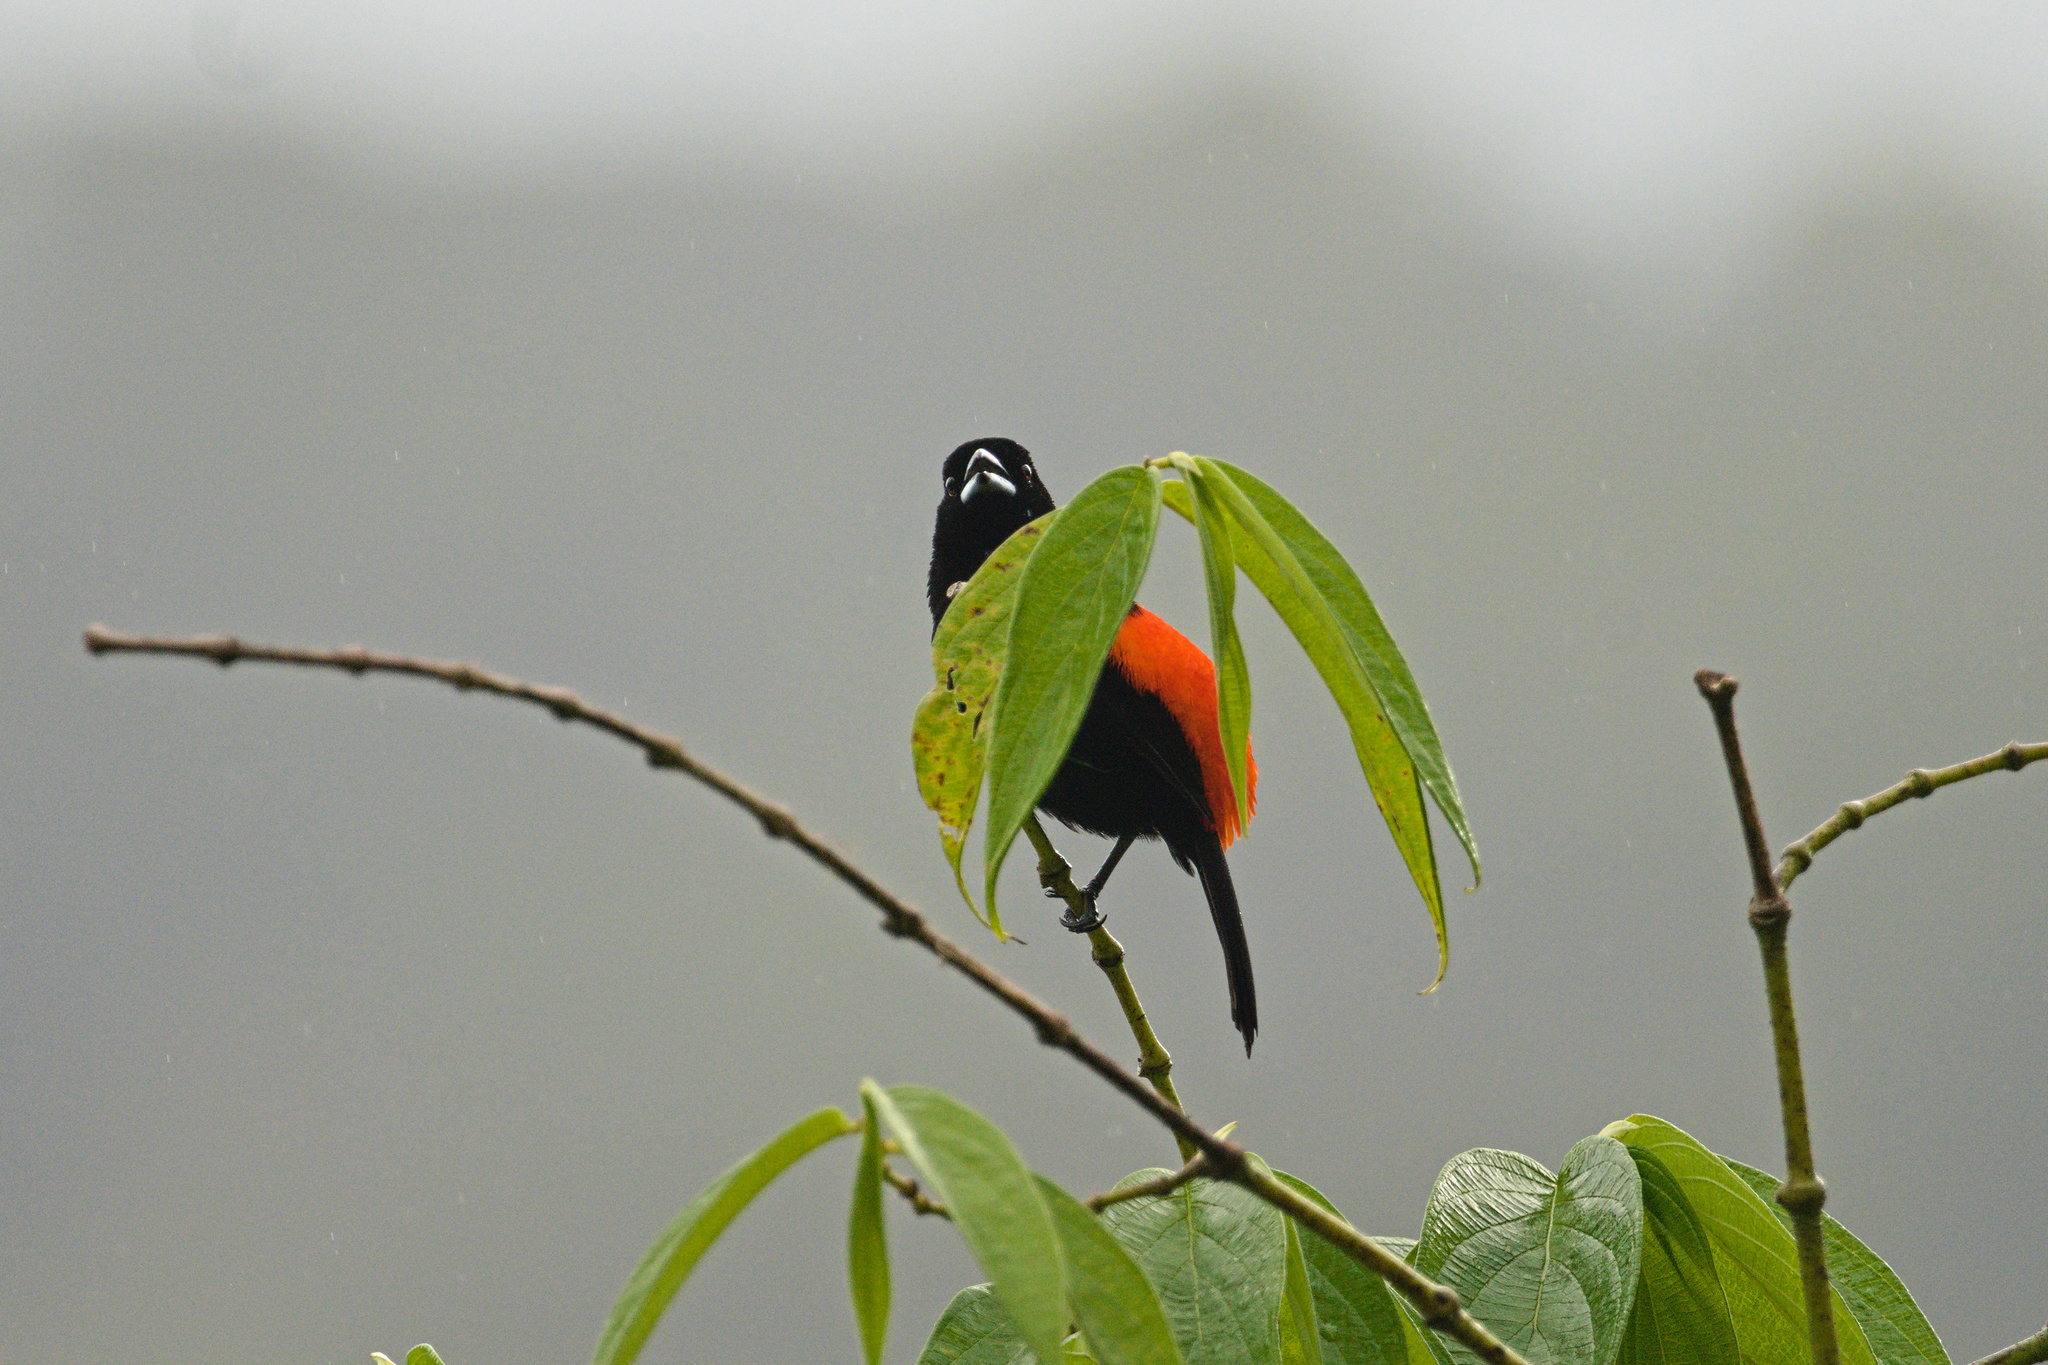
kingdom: Animalia
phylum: Chordata
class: Aves
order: Passeriformes
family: Thraupidae
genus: Ramphocelus
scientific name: Ramphocelus passerinii
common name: Passerini's tanager
